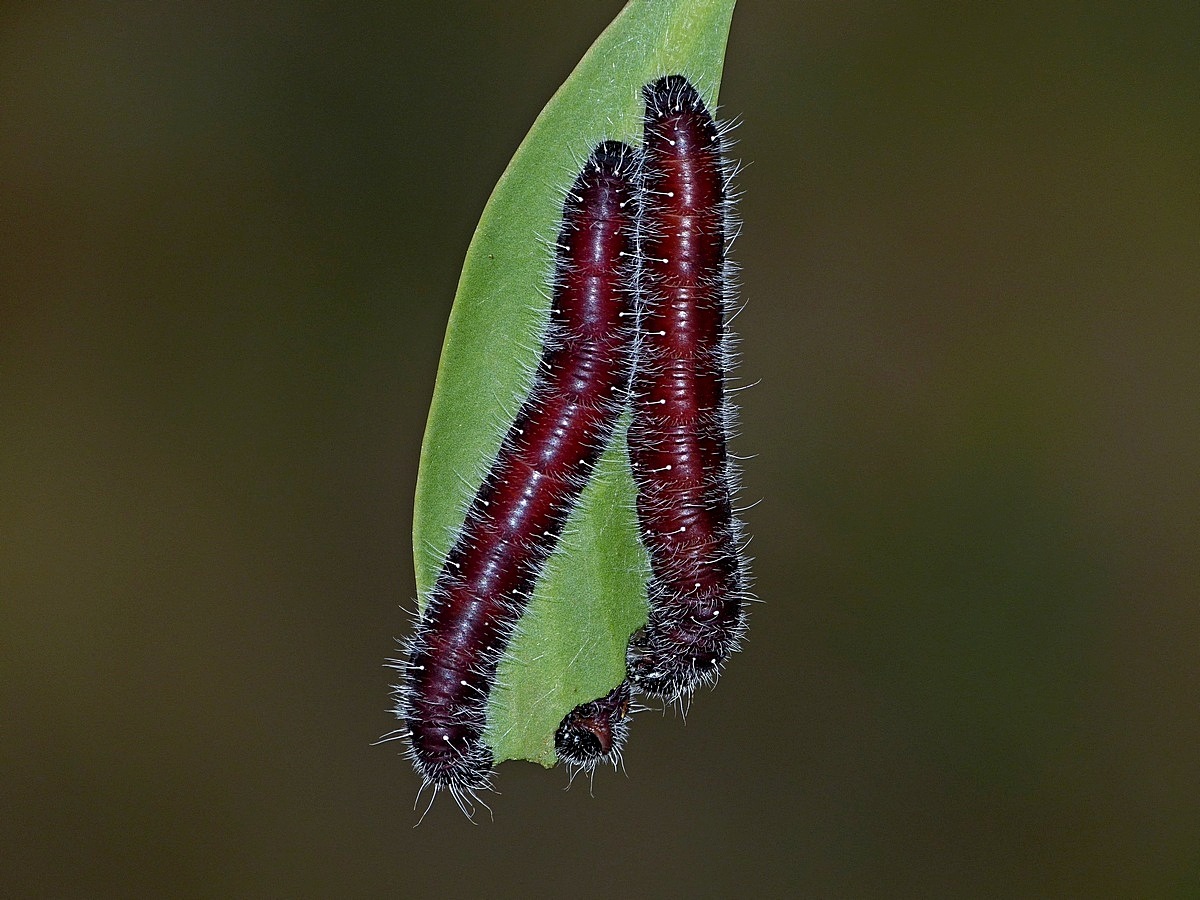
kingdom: Animalia
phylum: Arthropoda
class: Insecta
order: Lepidoptera
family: Pieridae
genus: Delias
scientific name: Delias harpalyce
